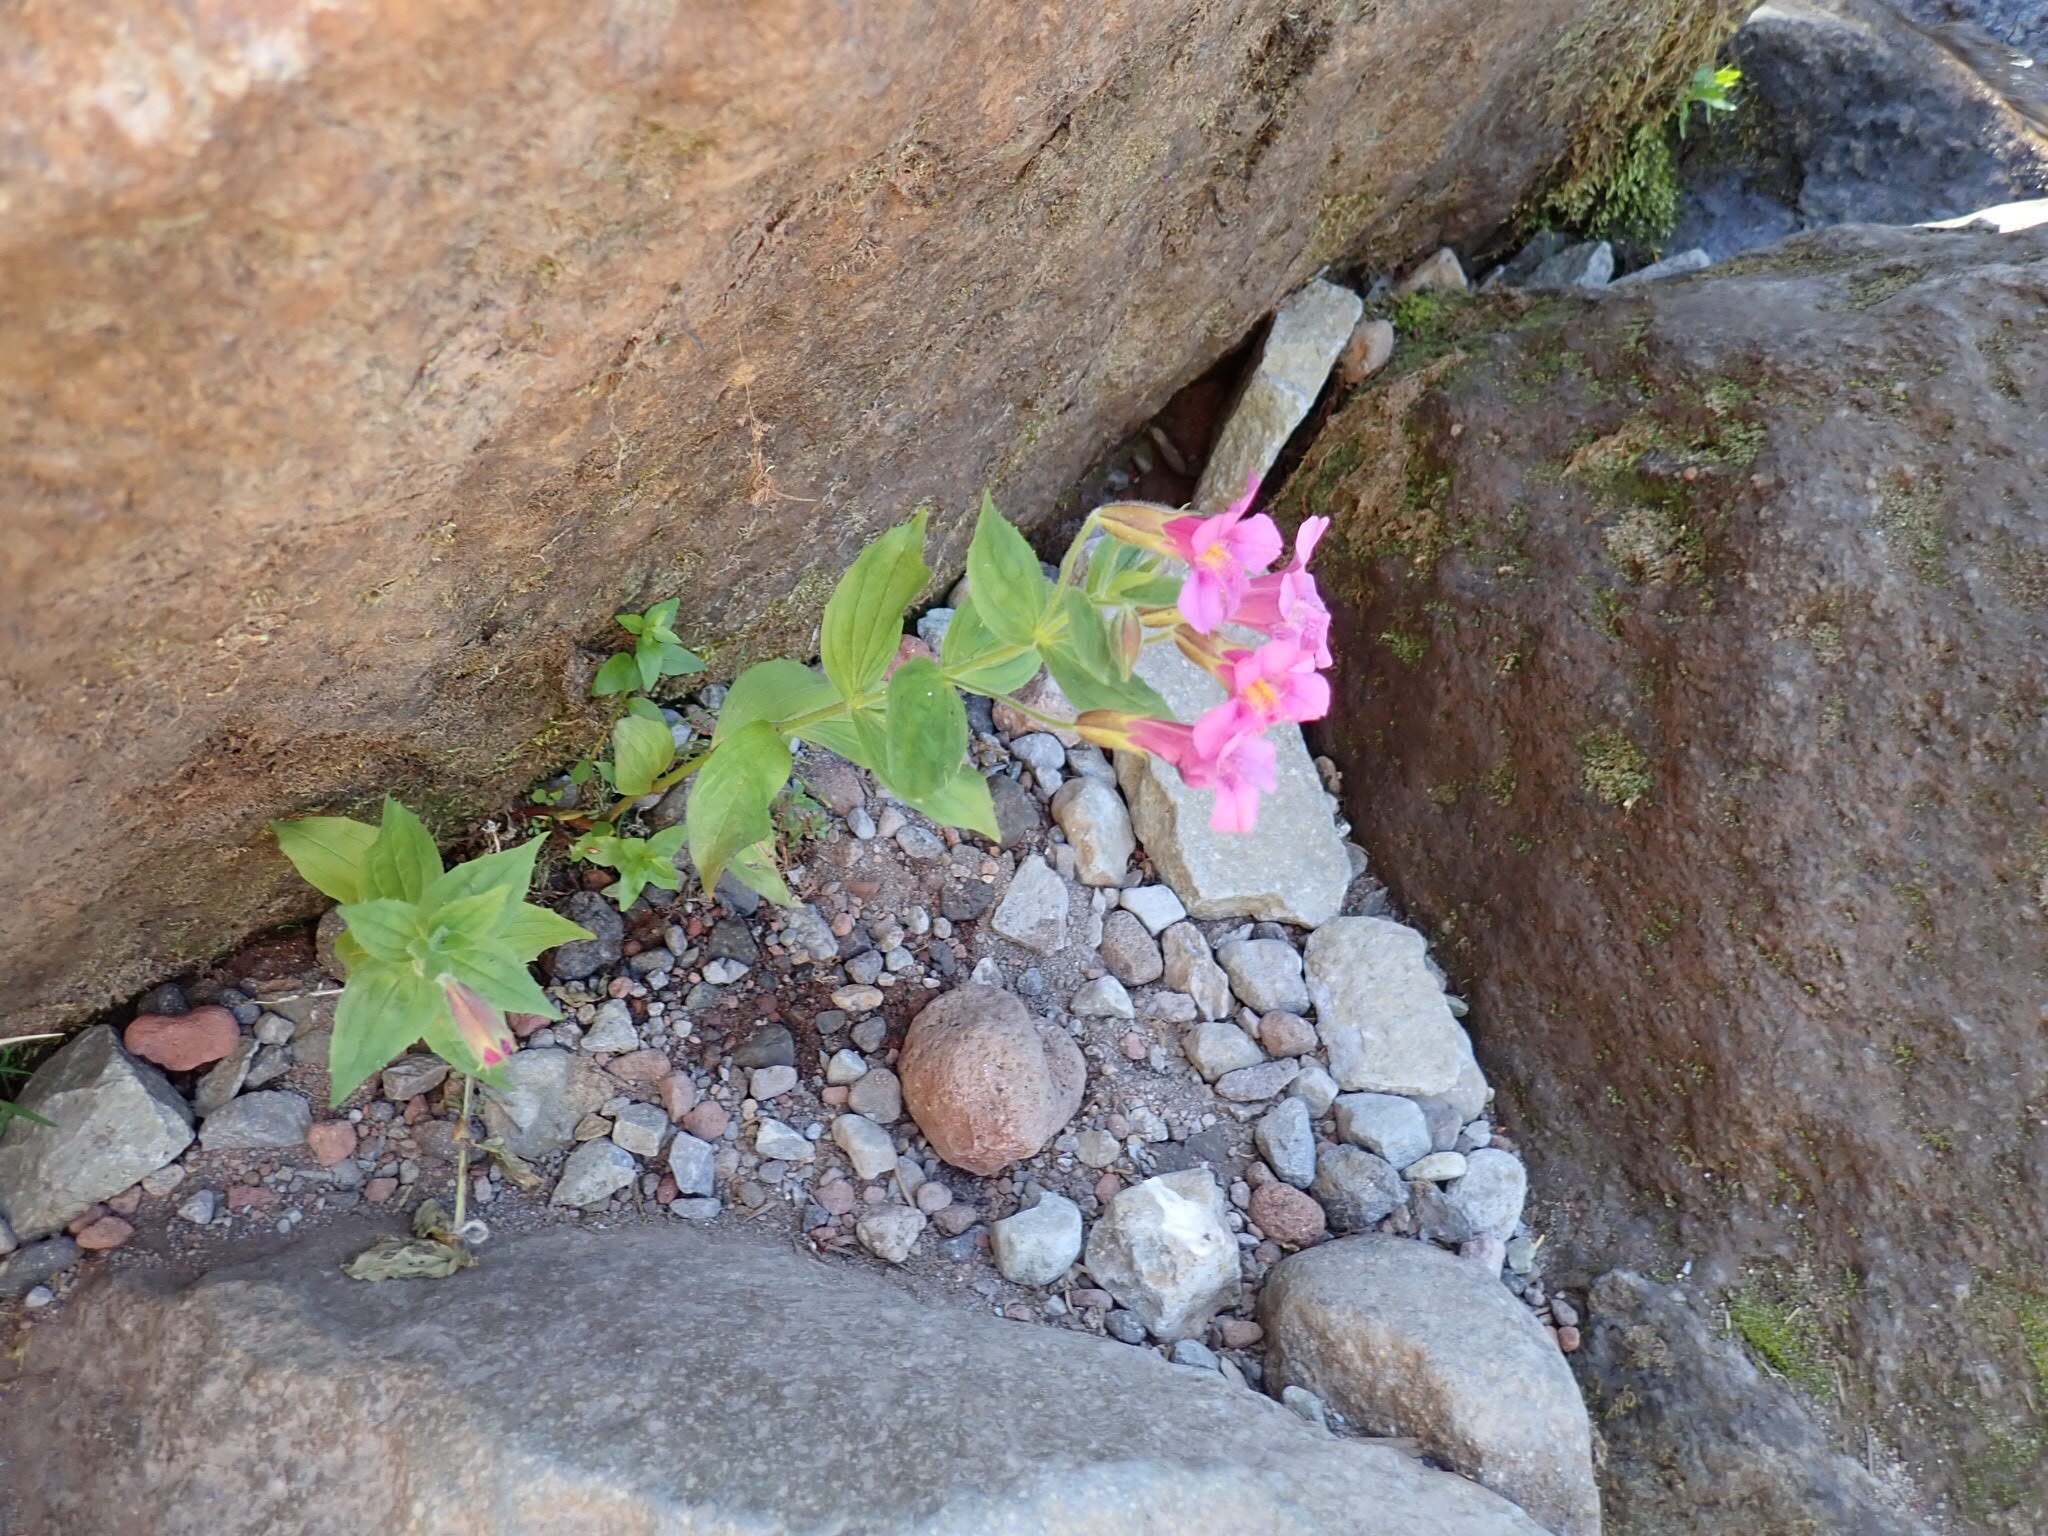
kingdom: Plantae
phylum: Tracheophyta
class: Magnoliopsida
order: Lamiales
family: Phrymaceae
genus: Erythranthe
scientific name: Erythranthe lewisii
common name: Lewis's monkey-flower
